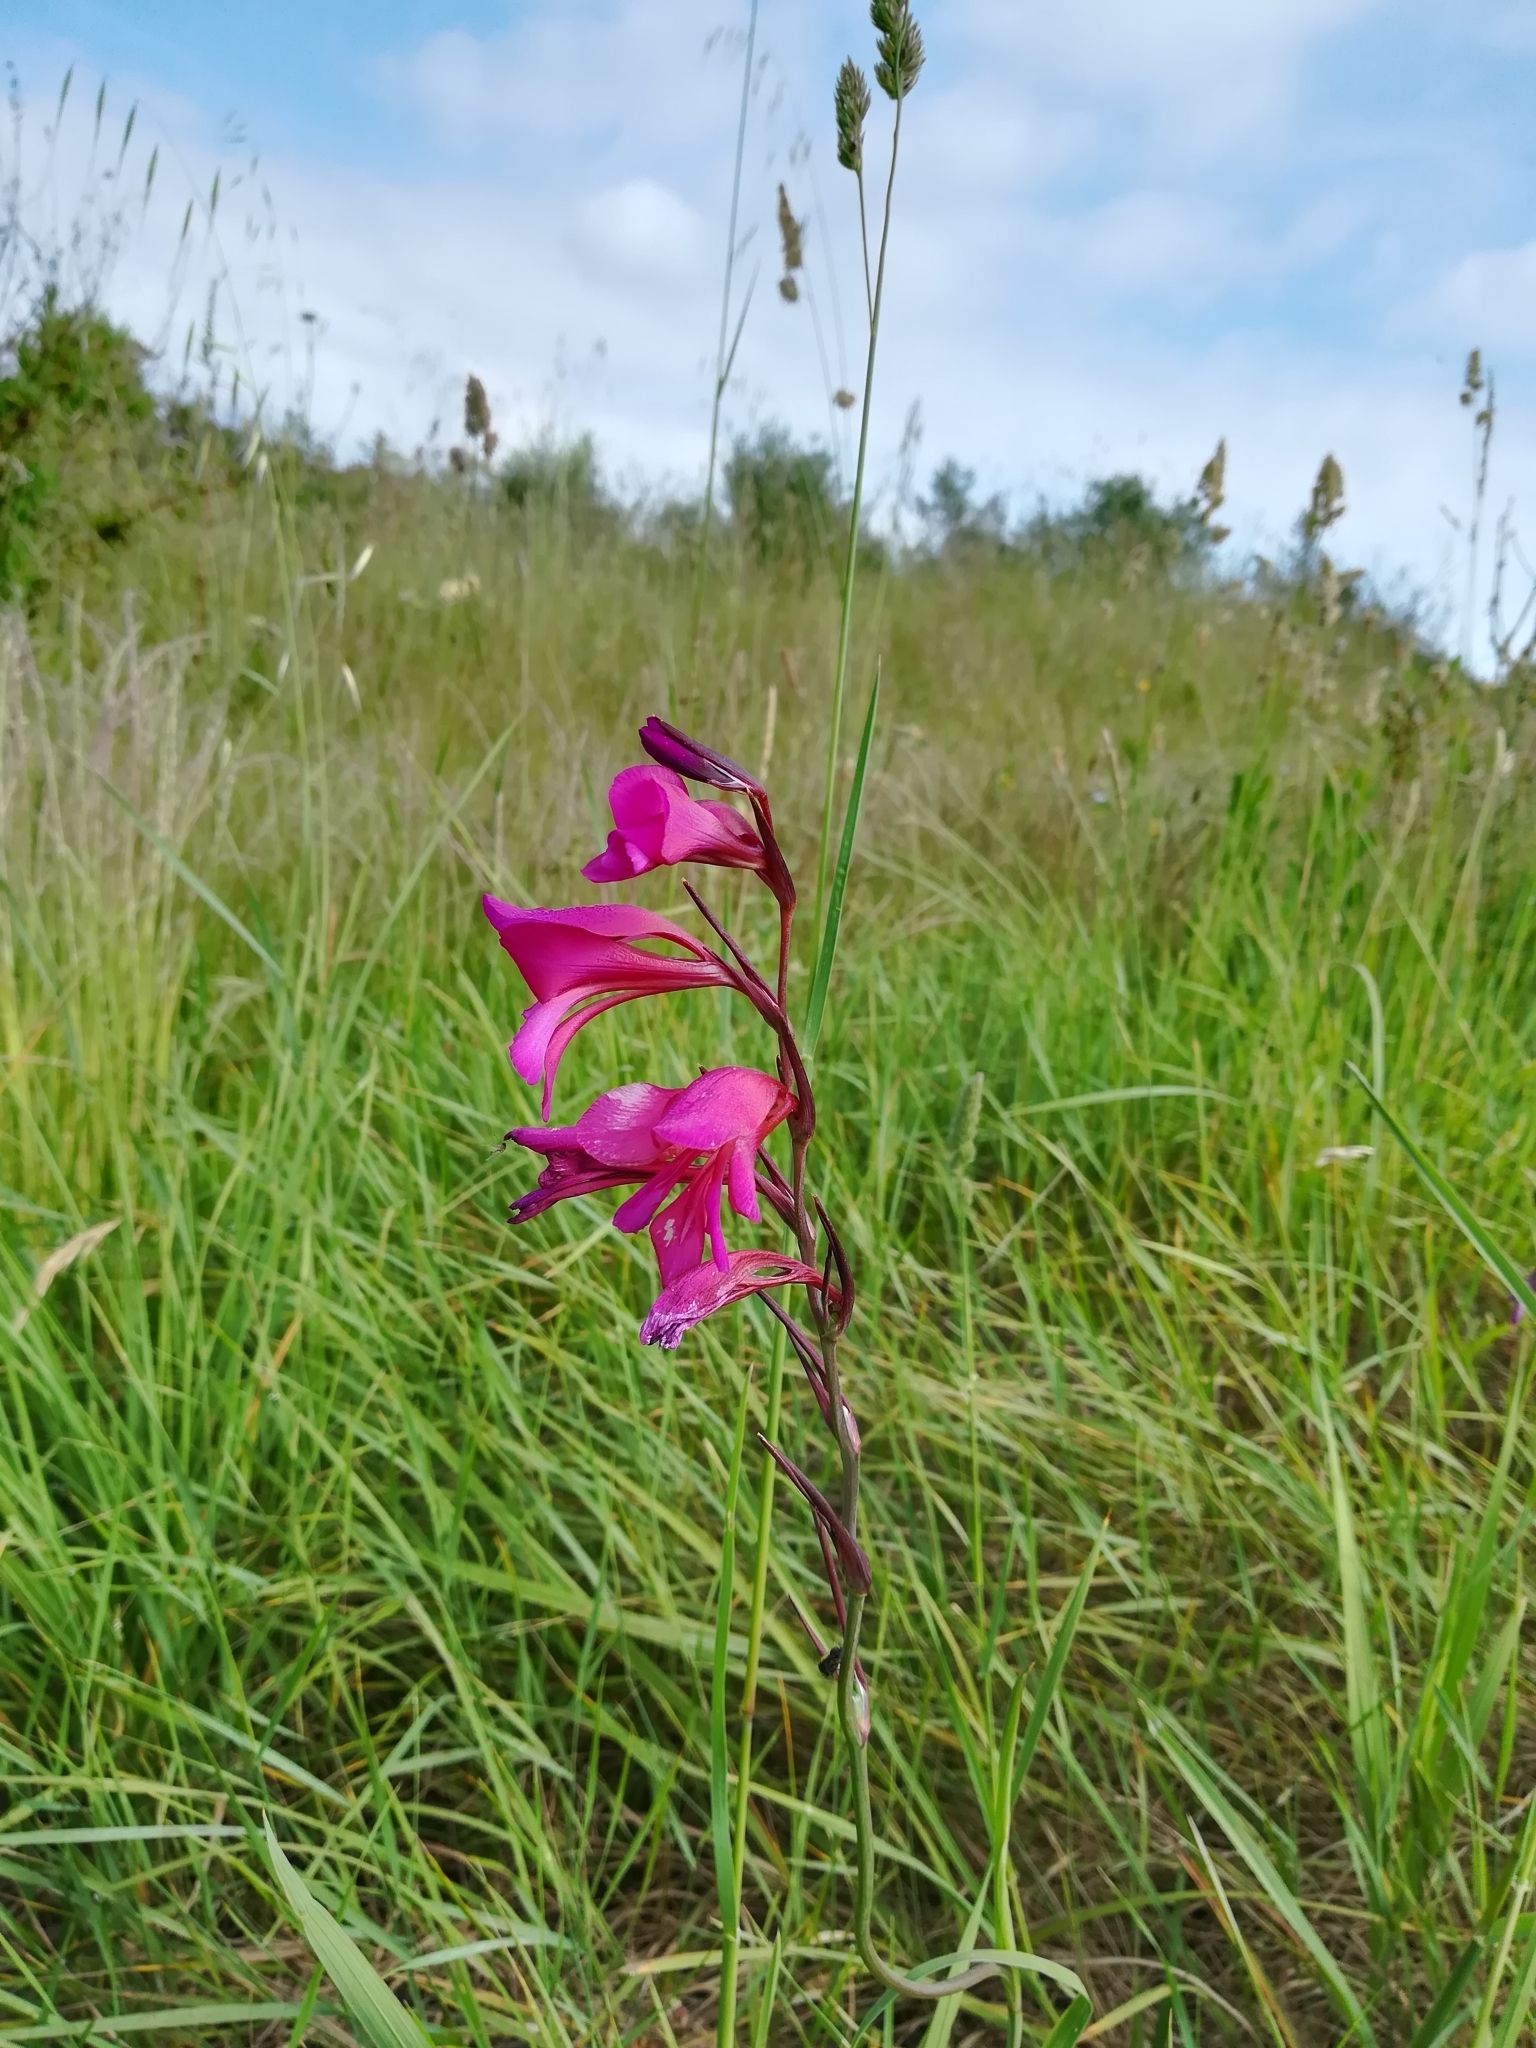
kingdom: Plantae
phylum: Tracheophyta
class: Liliopsida
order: Asparagales
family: Iridaceae
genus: Gladiolus
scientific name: Gladiolus italicus
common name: Field gladiolus
